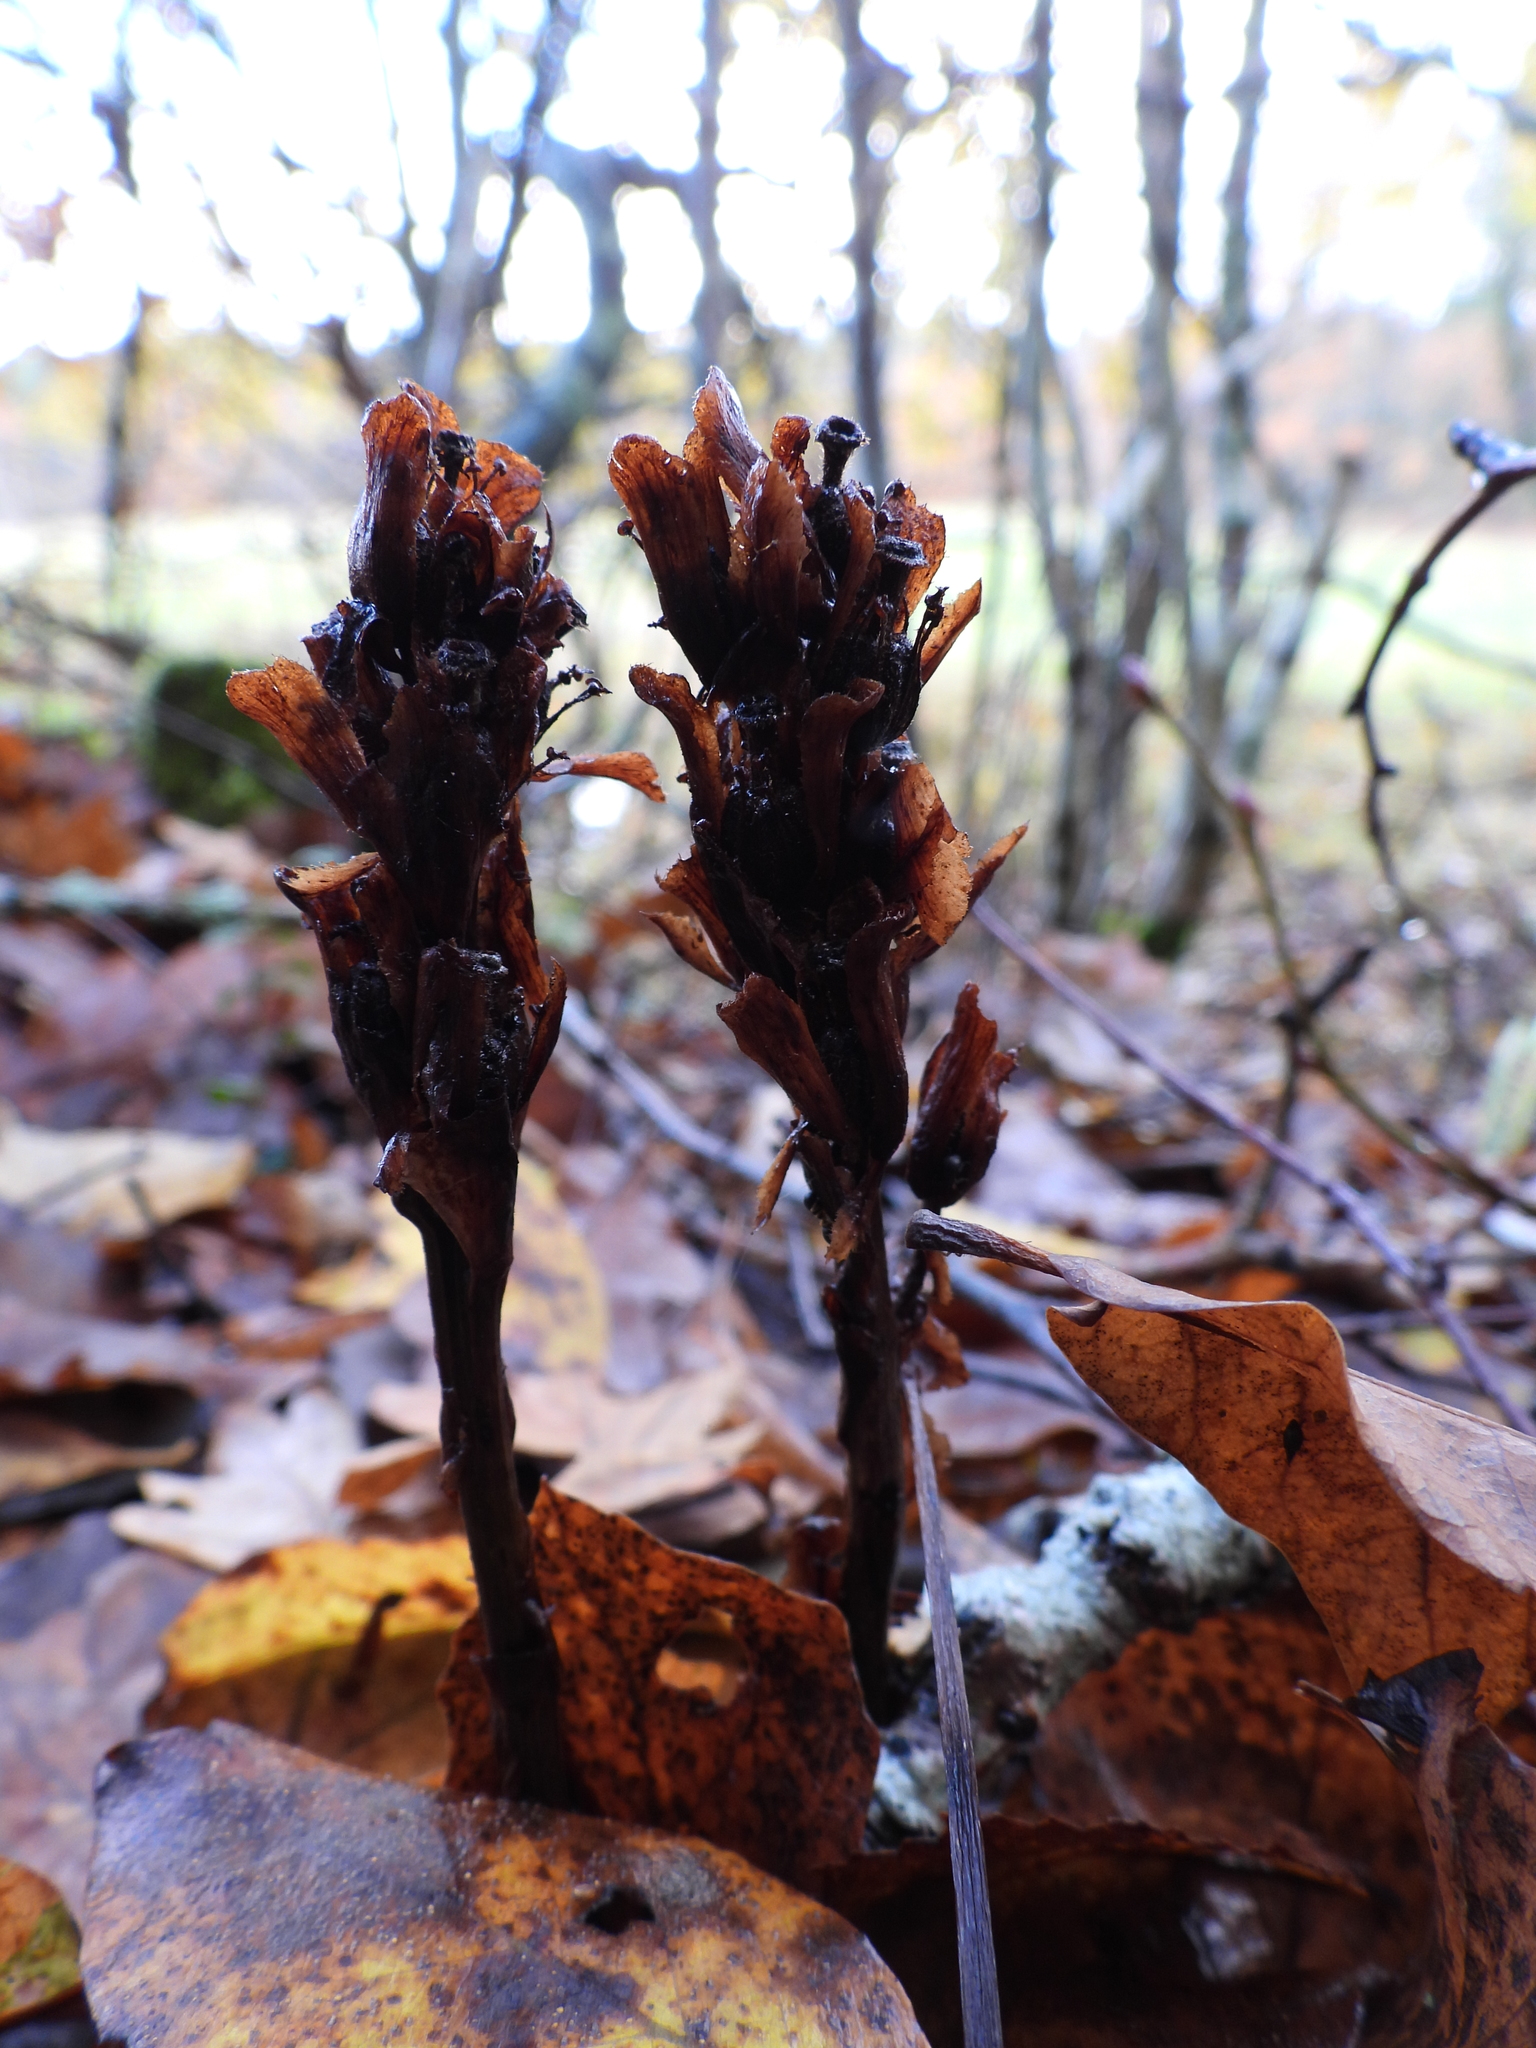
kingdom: Plantae
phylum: Tracheophyta
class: Magnoliopsida
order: Ericales
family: Ericaceae
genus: Hypopitys
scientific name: Hypopitys monotropa
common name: Yellow bird's-nest
